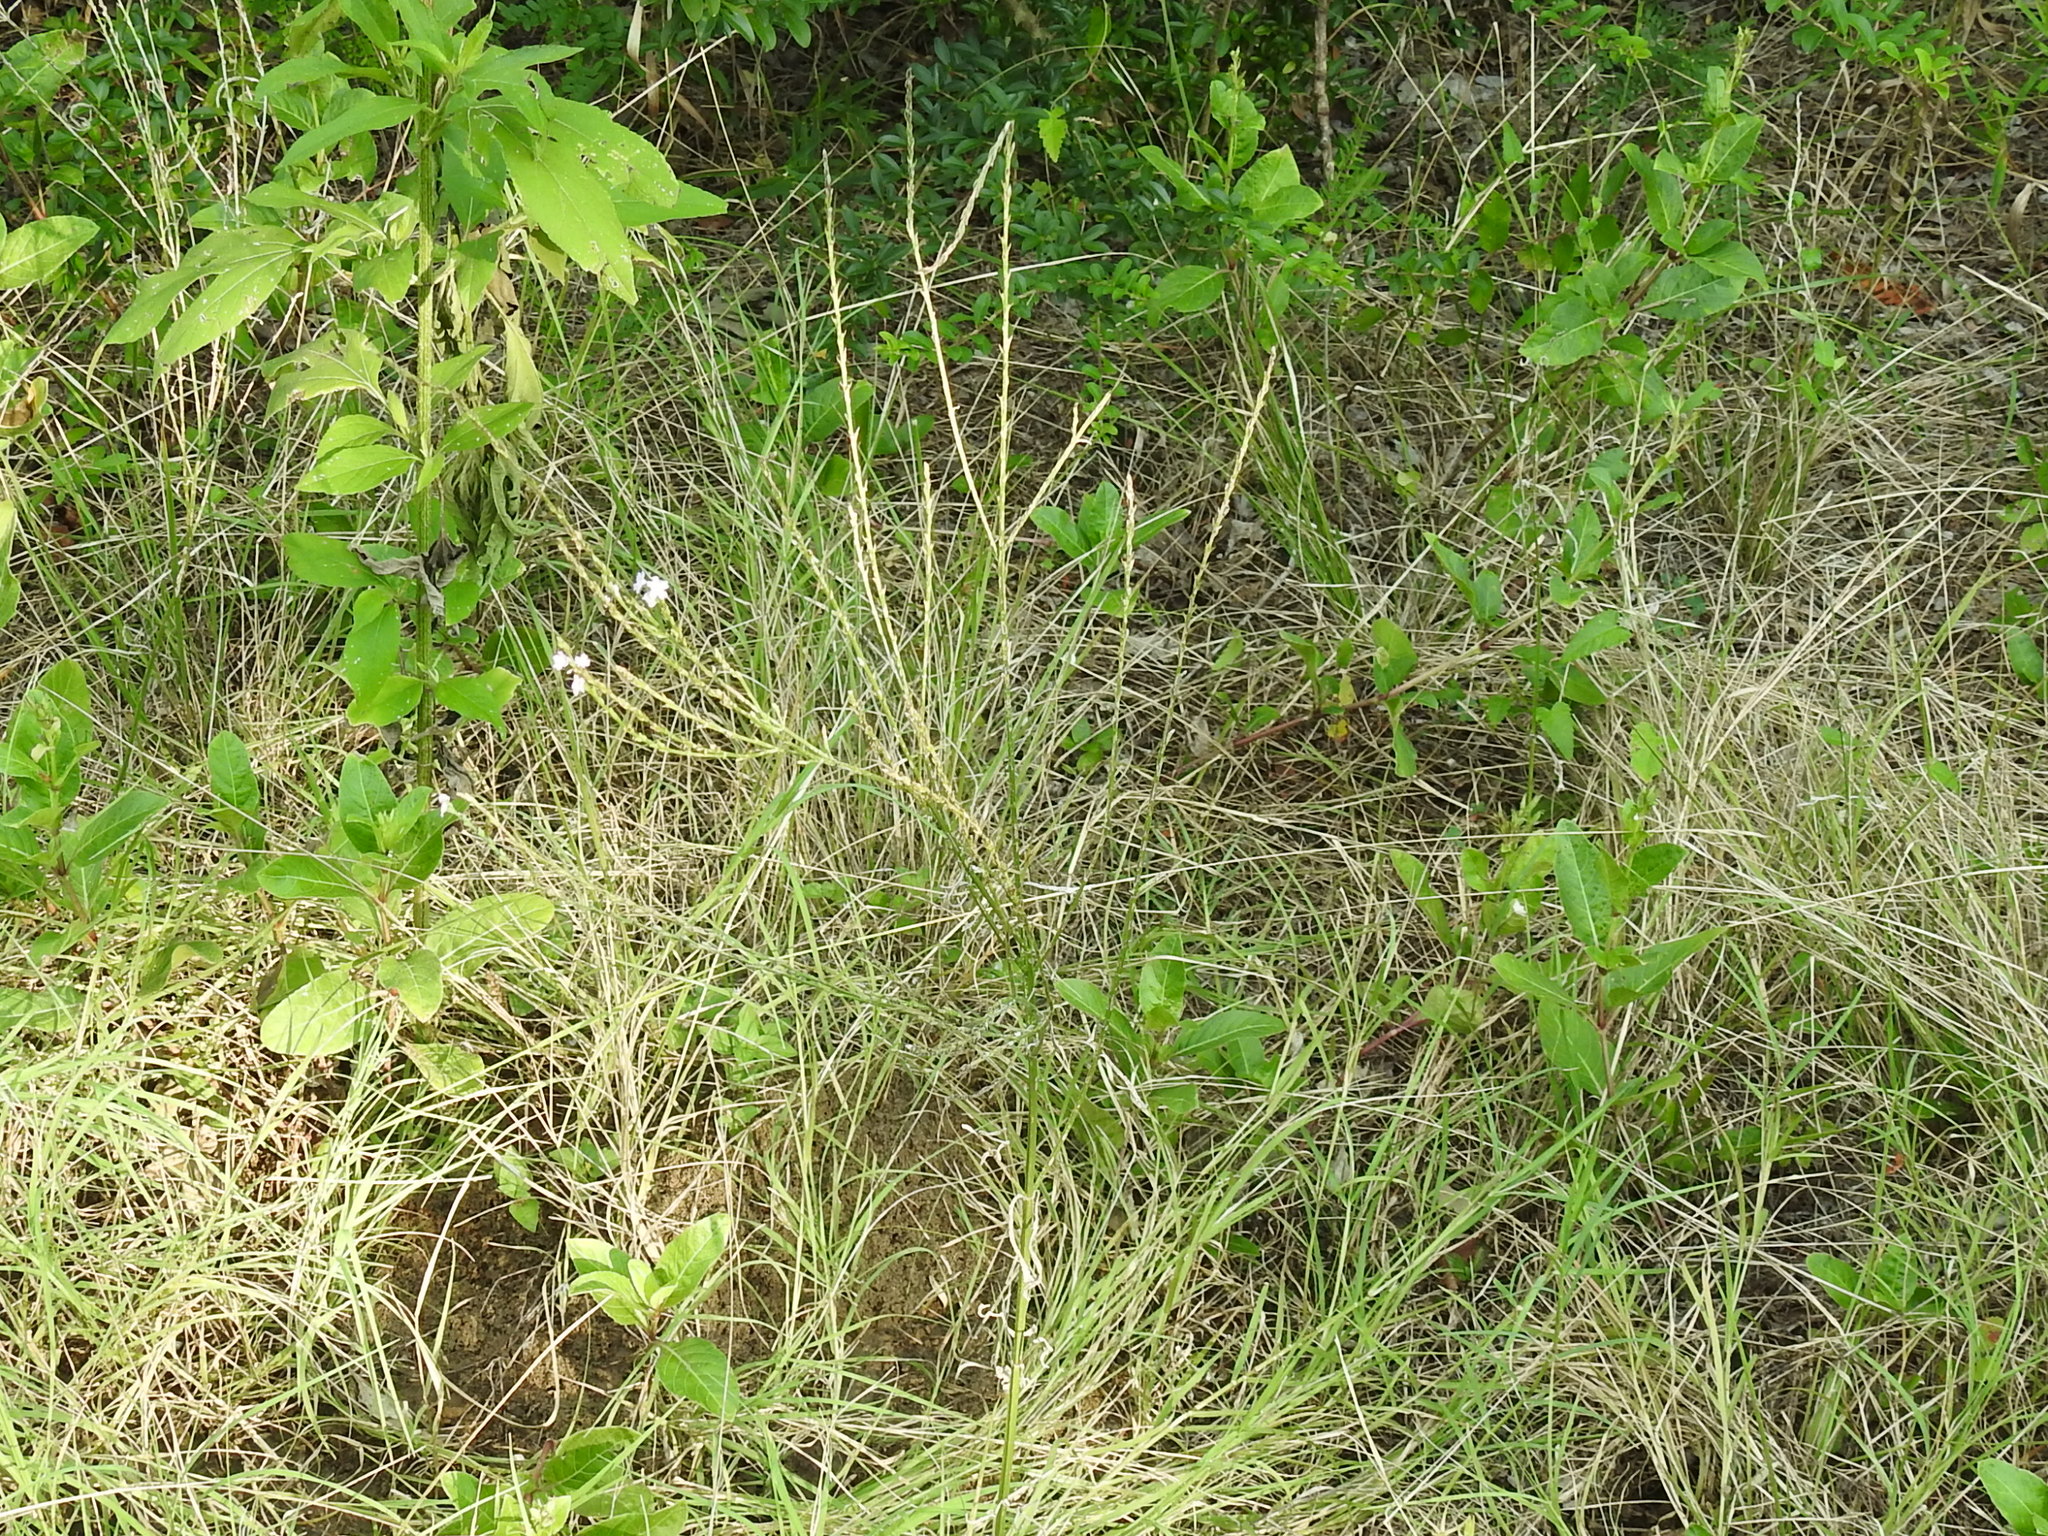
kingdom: Plantae
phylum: Tracheophyta
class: Magnoliopsida
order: Lamiales
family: Verbenaceae
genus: Verbena
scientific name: Verbena halei
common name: Texas vervain
